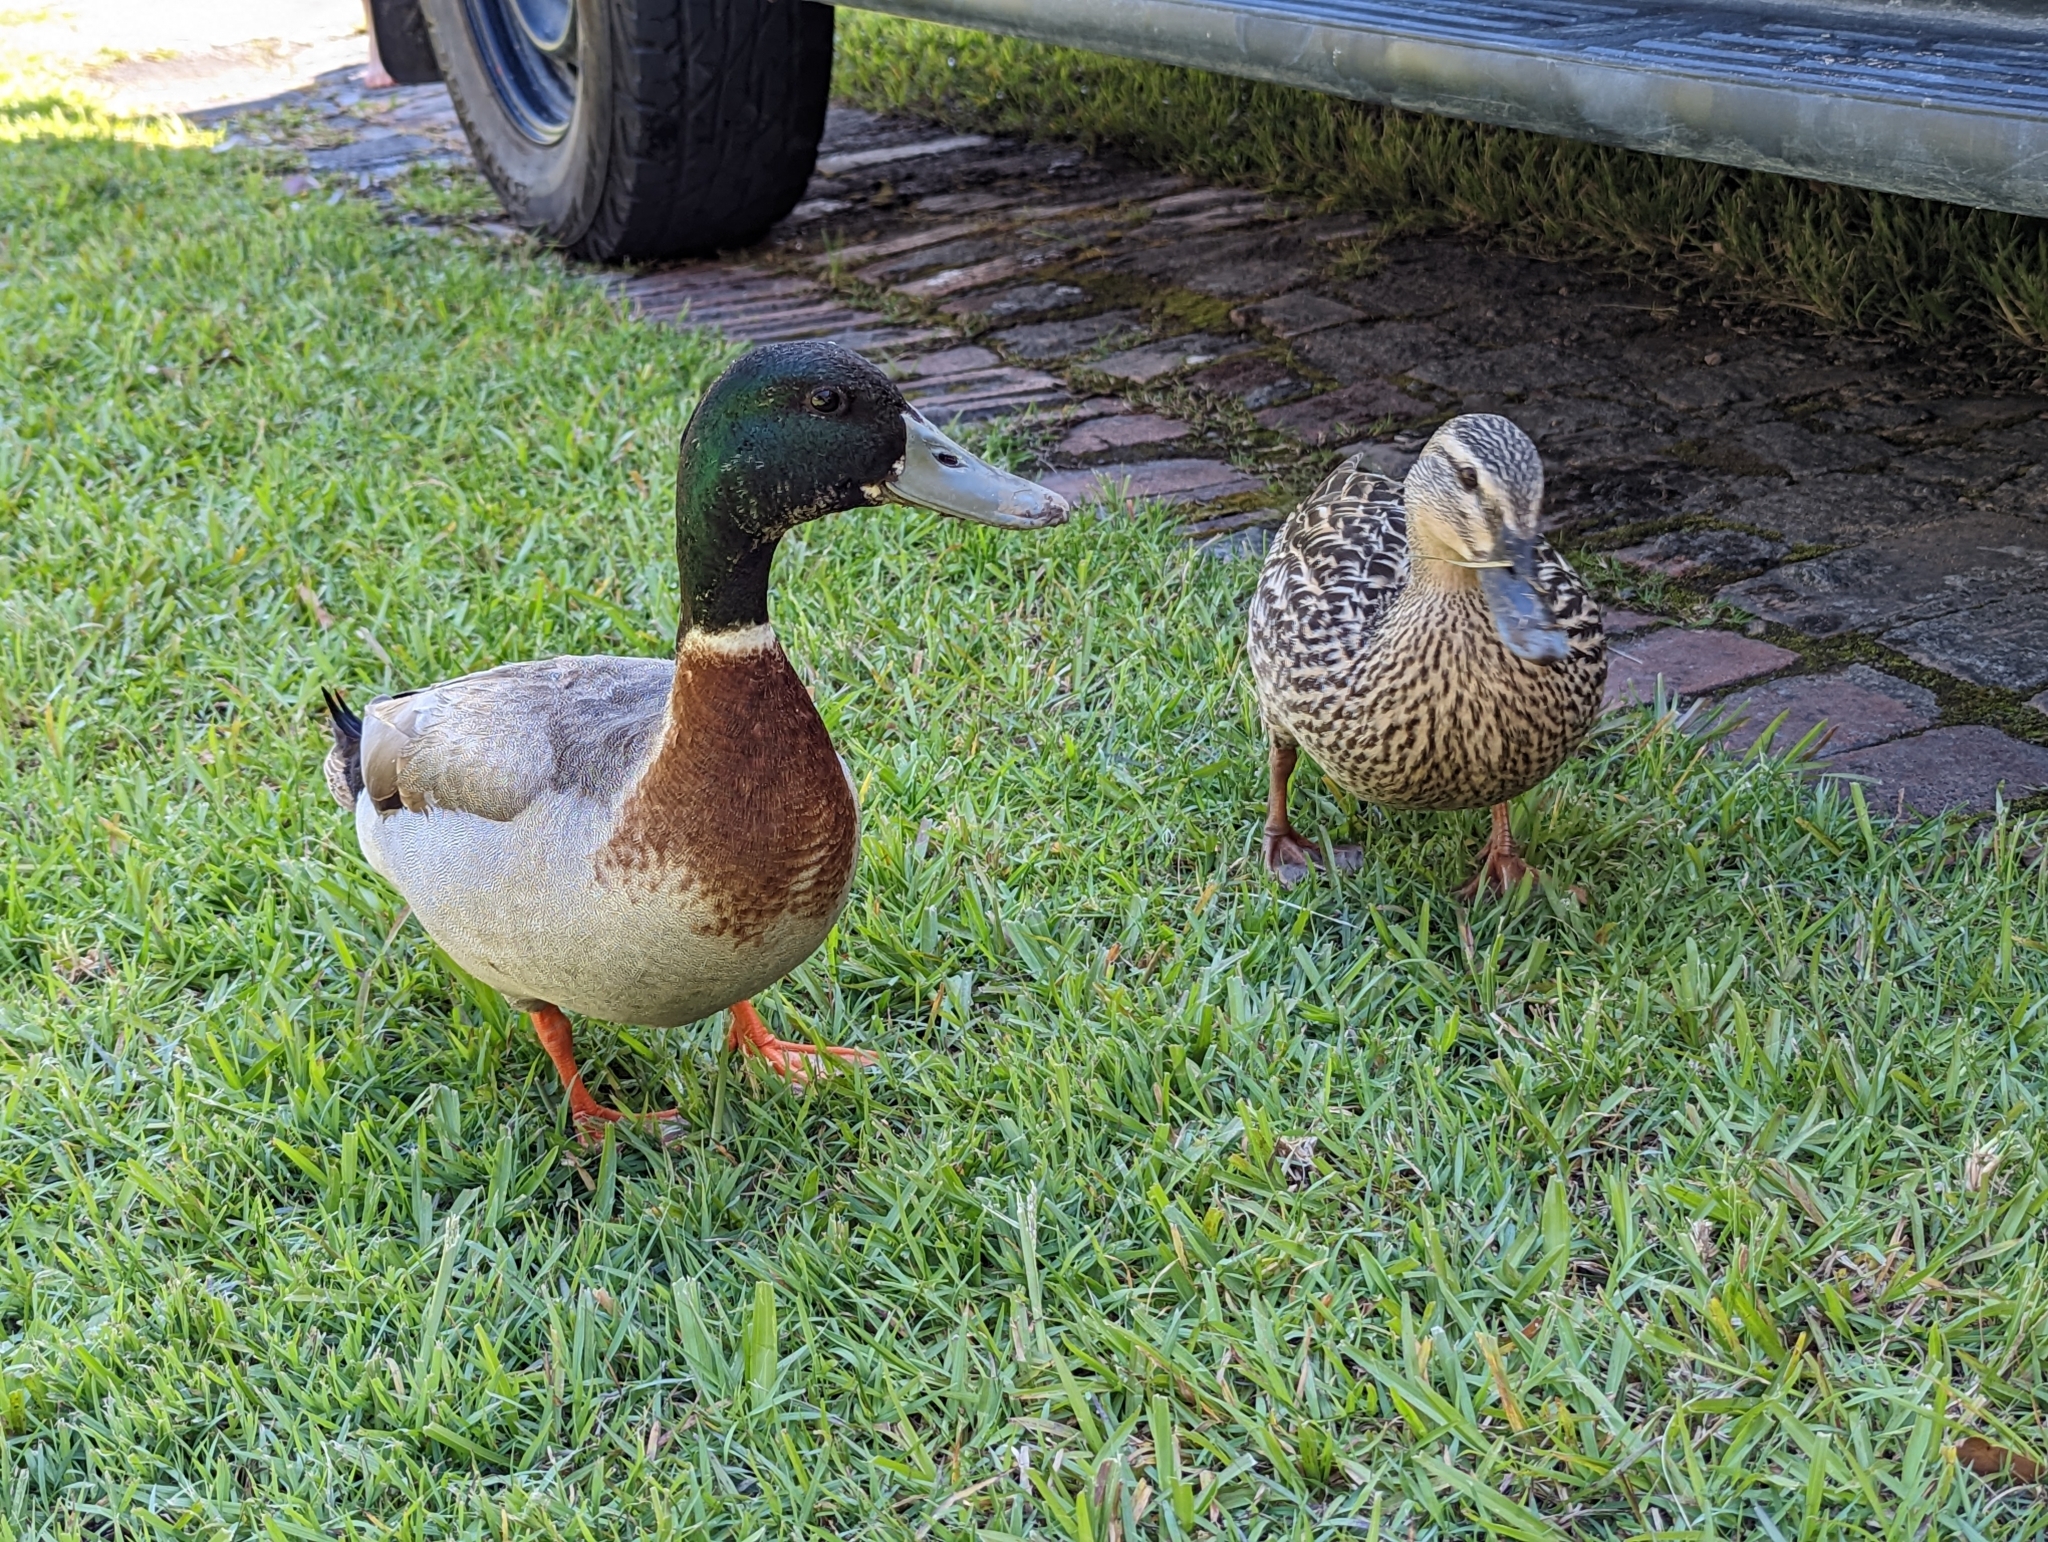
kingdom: Animalia
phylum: Chordata
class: Aves
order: Anseriformes
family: Anatidae
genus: Anas
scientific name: Anas platyrhynchos
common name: Mallard
